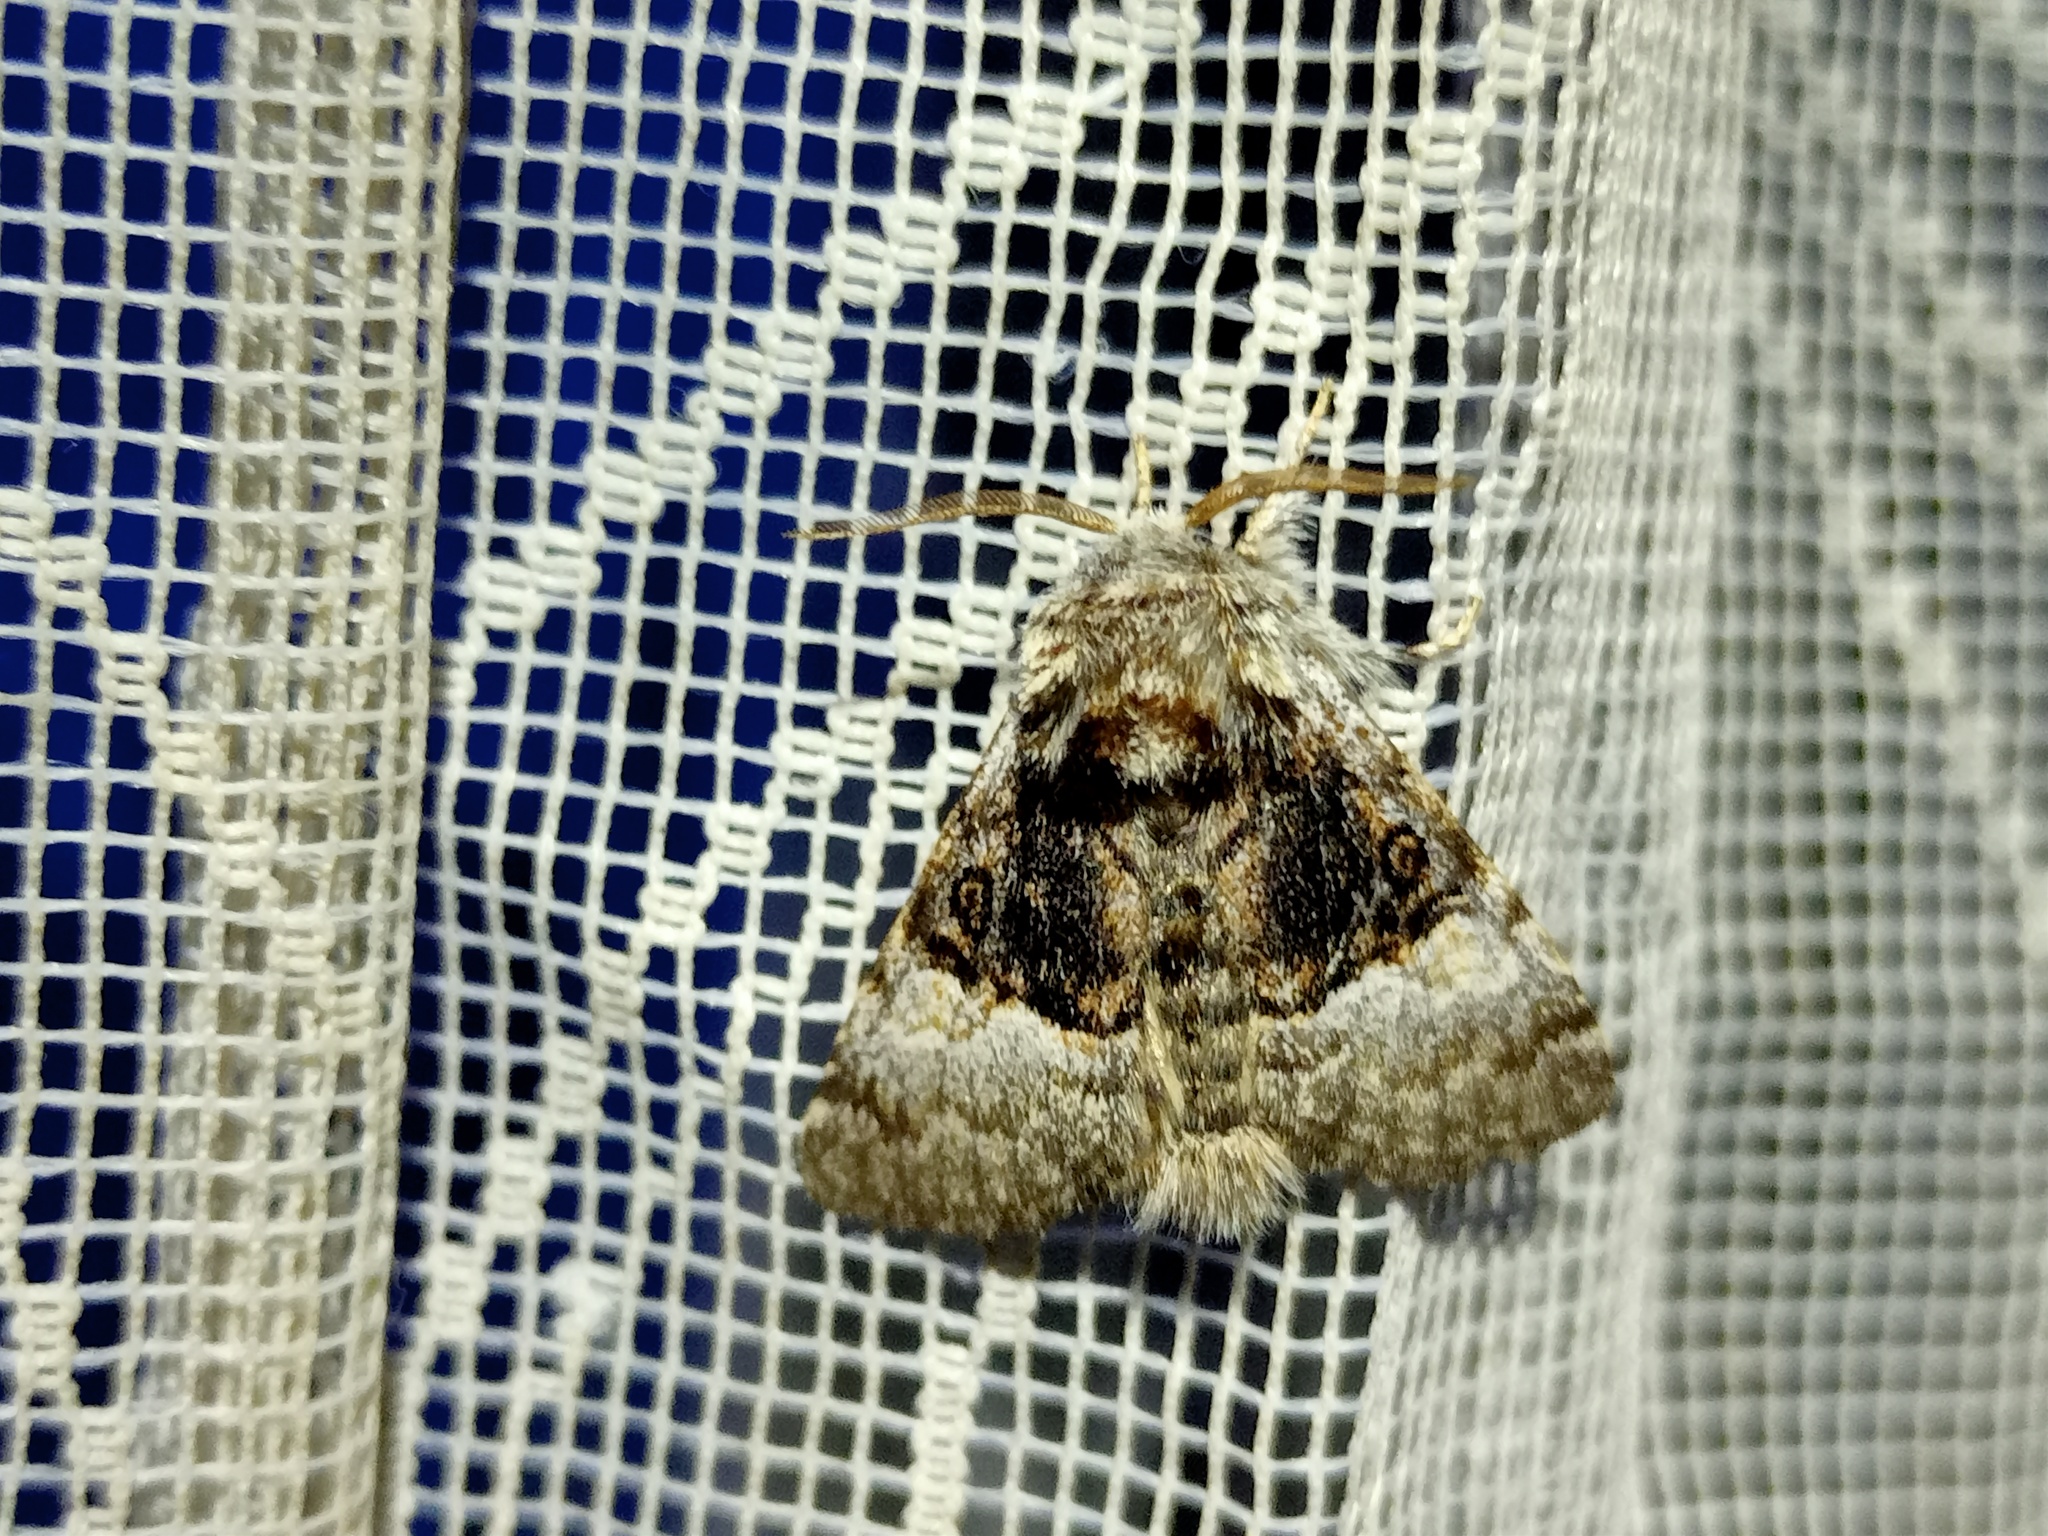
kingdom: Animalia
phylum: Arthropoda
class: Insecta
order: Lepidoptera
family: Noctuidae
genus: Colocasia
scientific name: Colocasia coryli
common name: Nut-tree tussock
